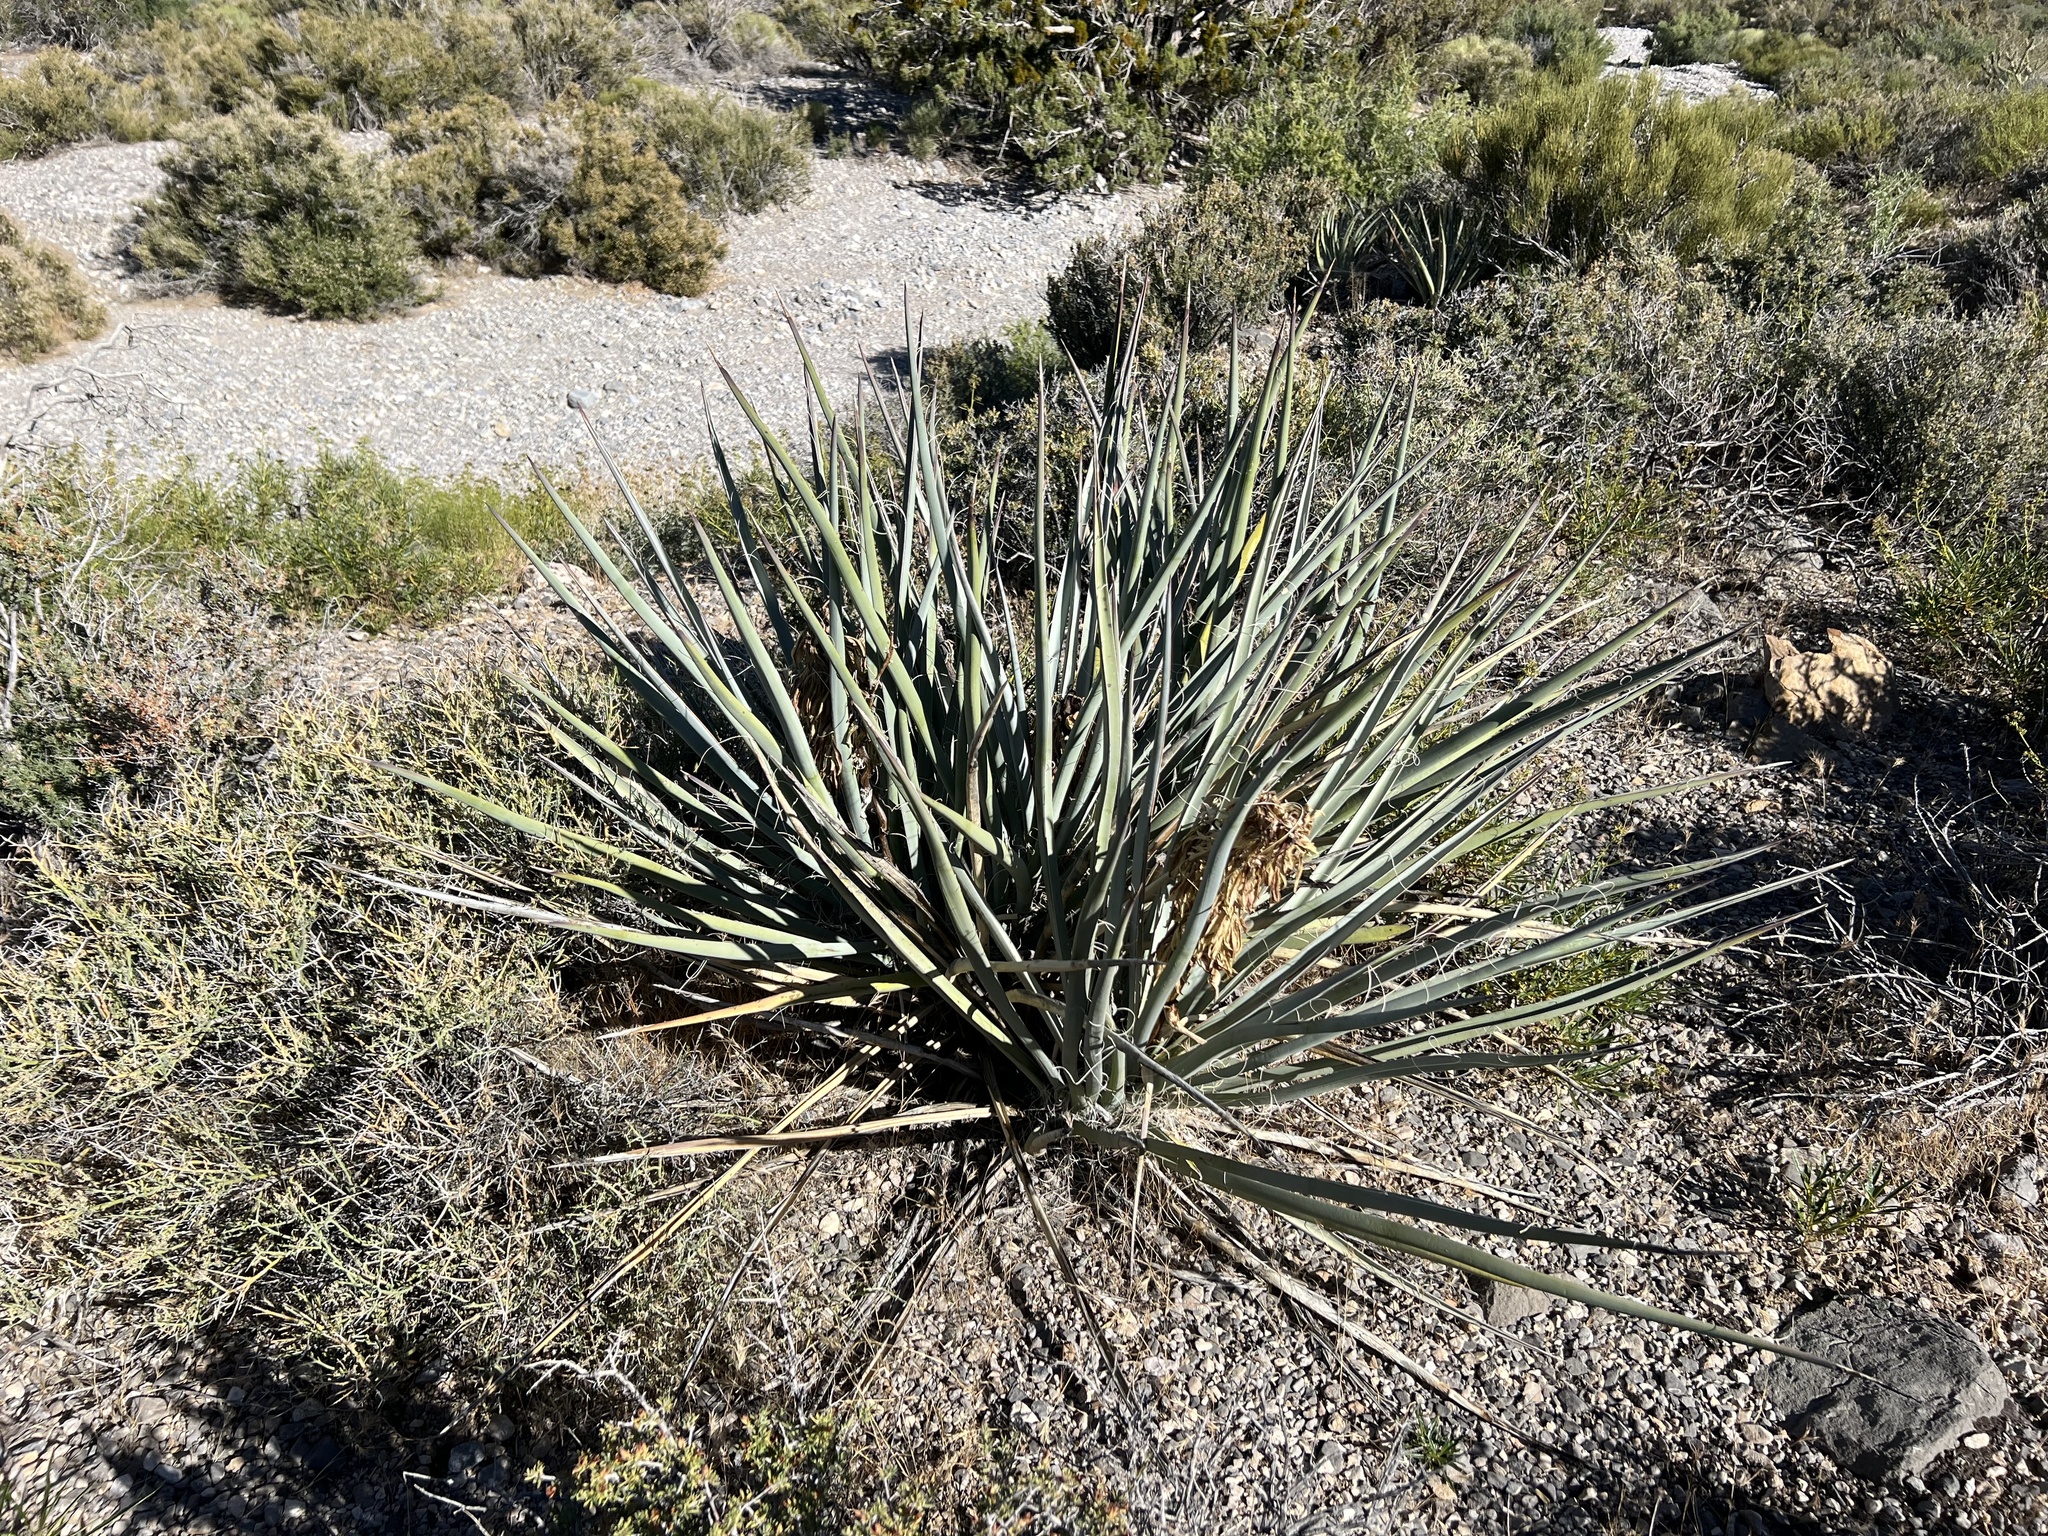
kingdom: Plantae
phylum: Tracheophyta
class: Liliopsida
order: Asparagales
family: Asparagaceae
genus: Yucca
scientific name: Yucca baccata
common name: Banana yucca
